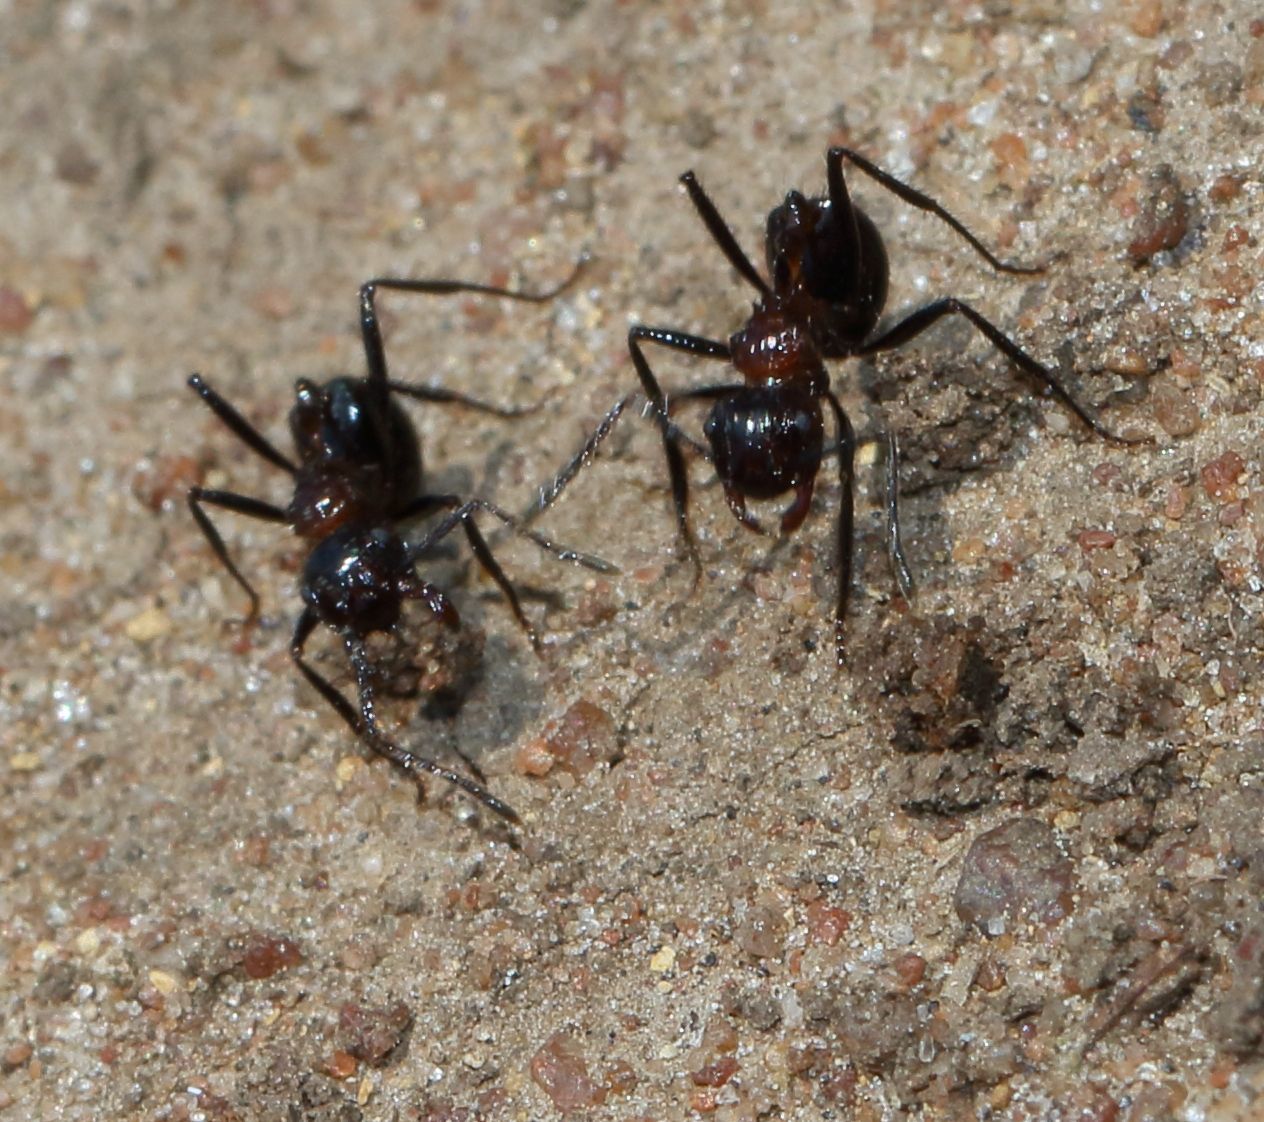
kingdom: Animalia
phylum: Arthropoda
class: Insecta
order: Hymenoptera
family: Formicidae
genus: Myrmicaria
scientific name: Myrmicaria natalensis
